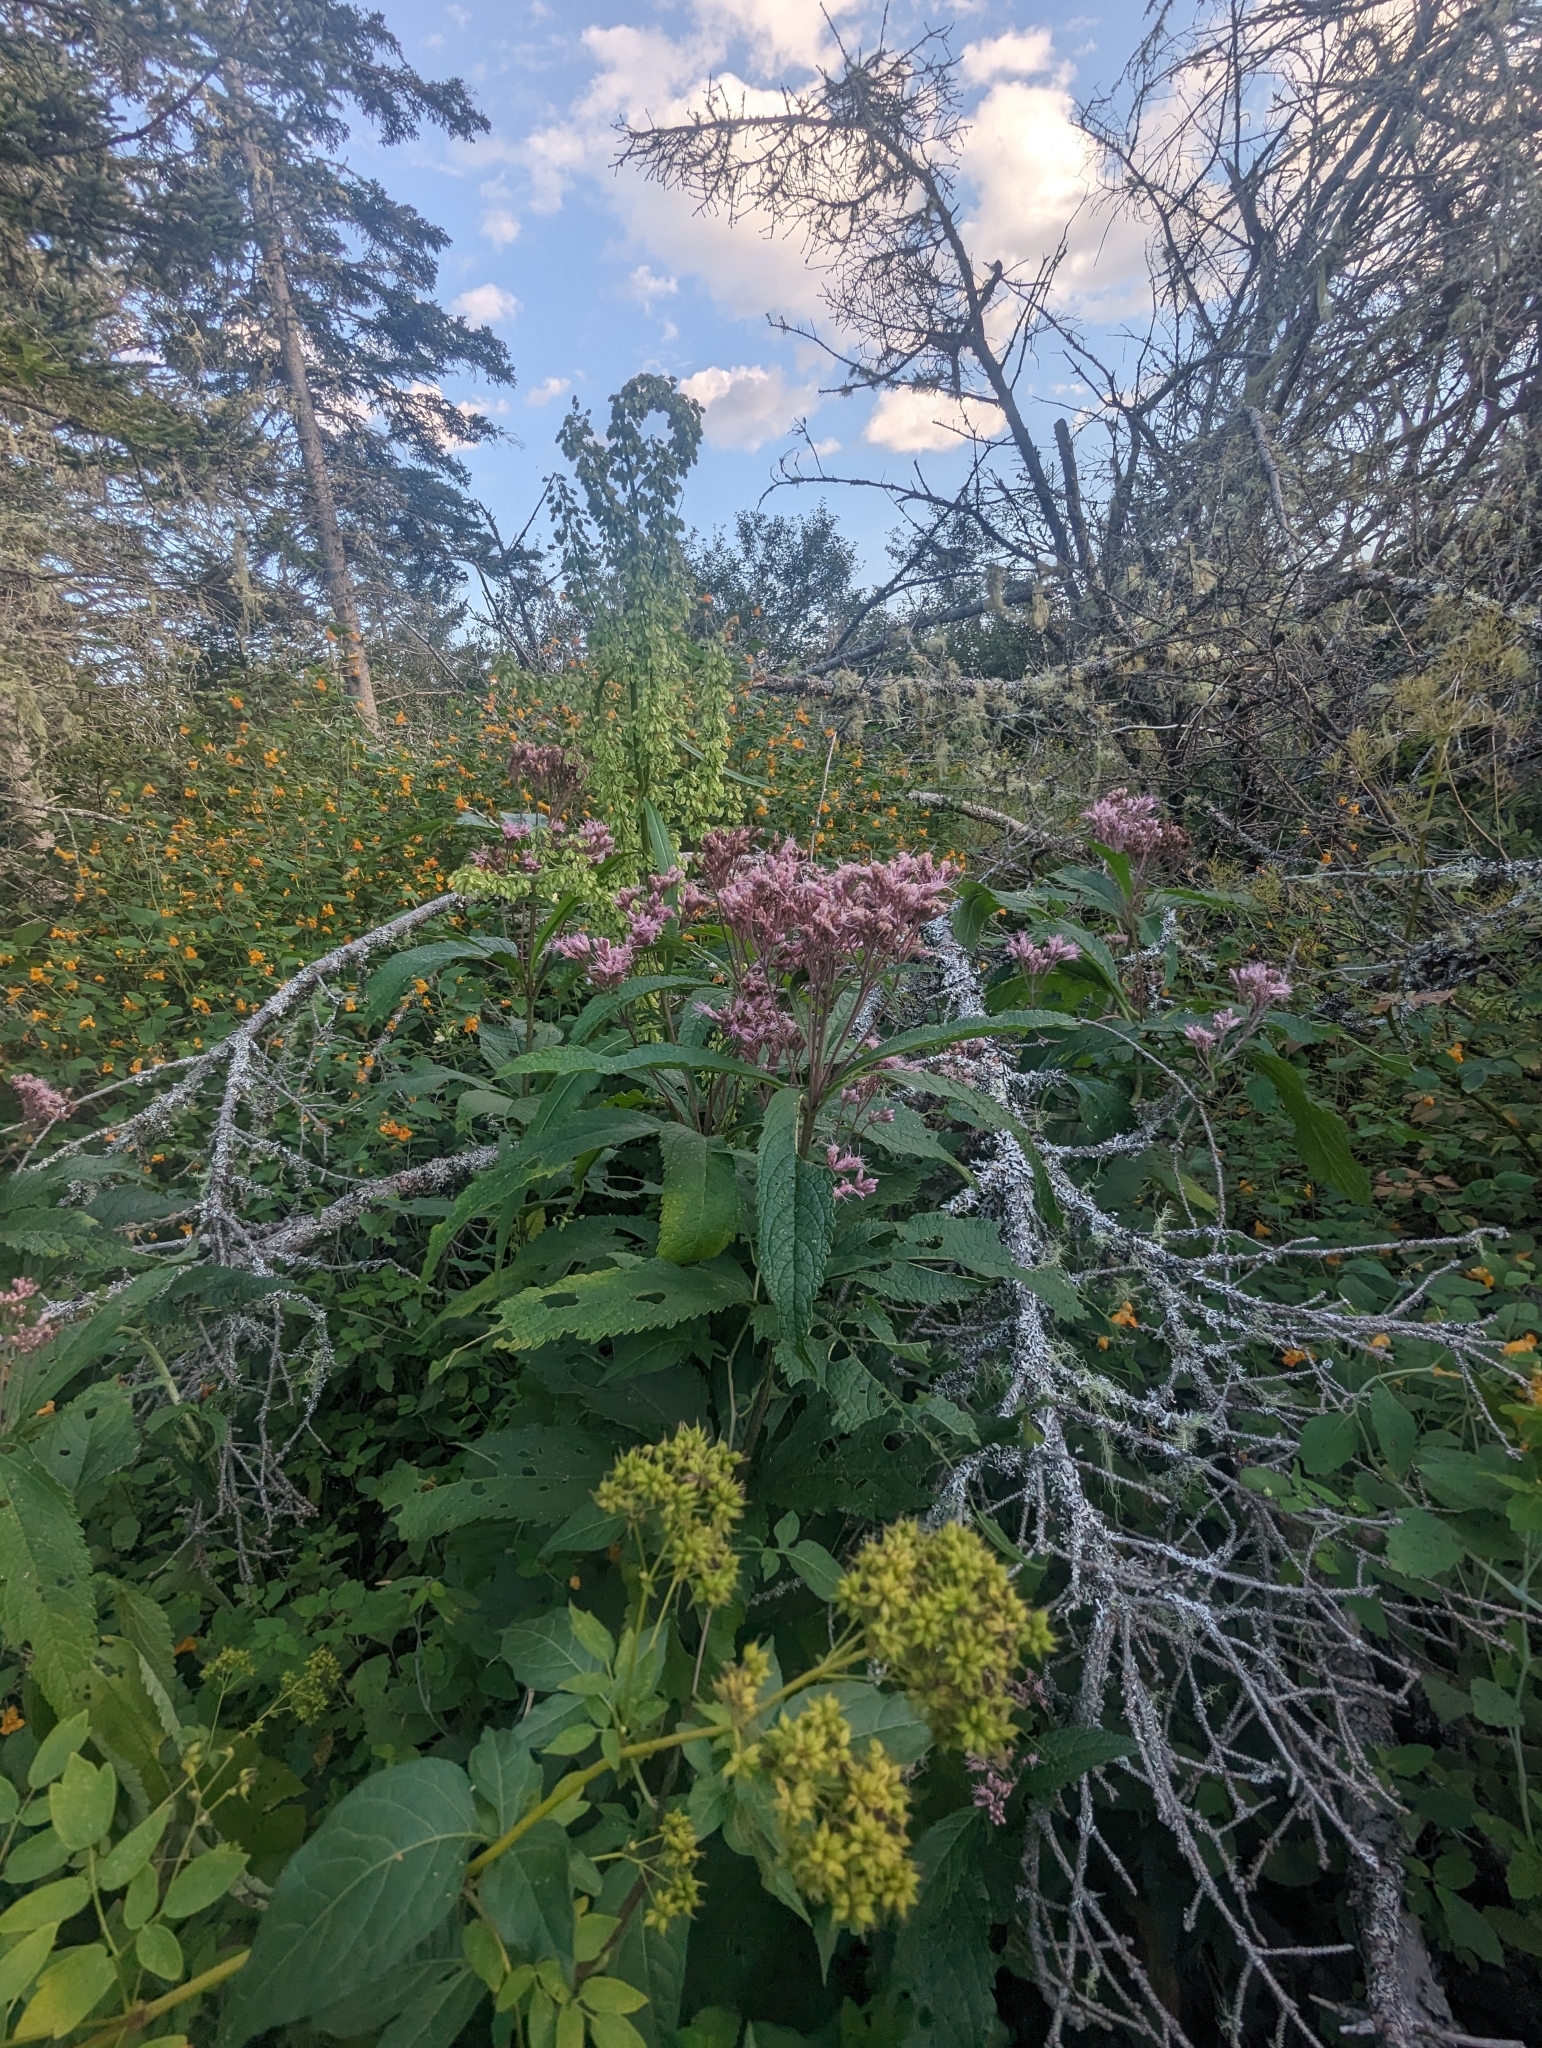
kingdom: Plantae
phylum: Tracheophyta
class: Magnoliopsida
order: Asterales
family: Asteraceae
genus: Eutrochium
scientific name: Eutrochium maculatum
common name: Spotted joe pye weed
